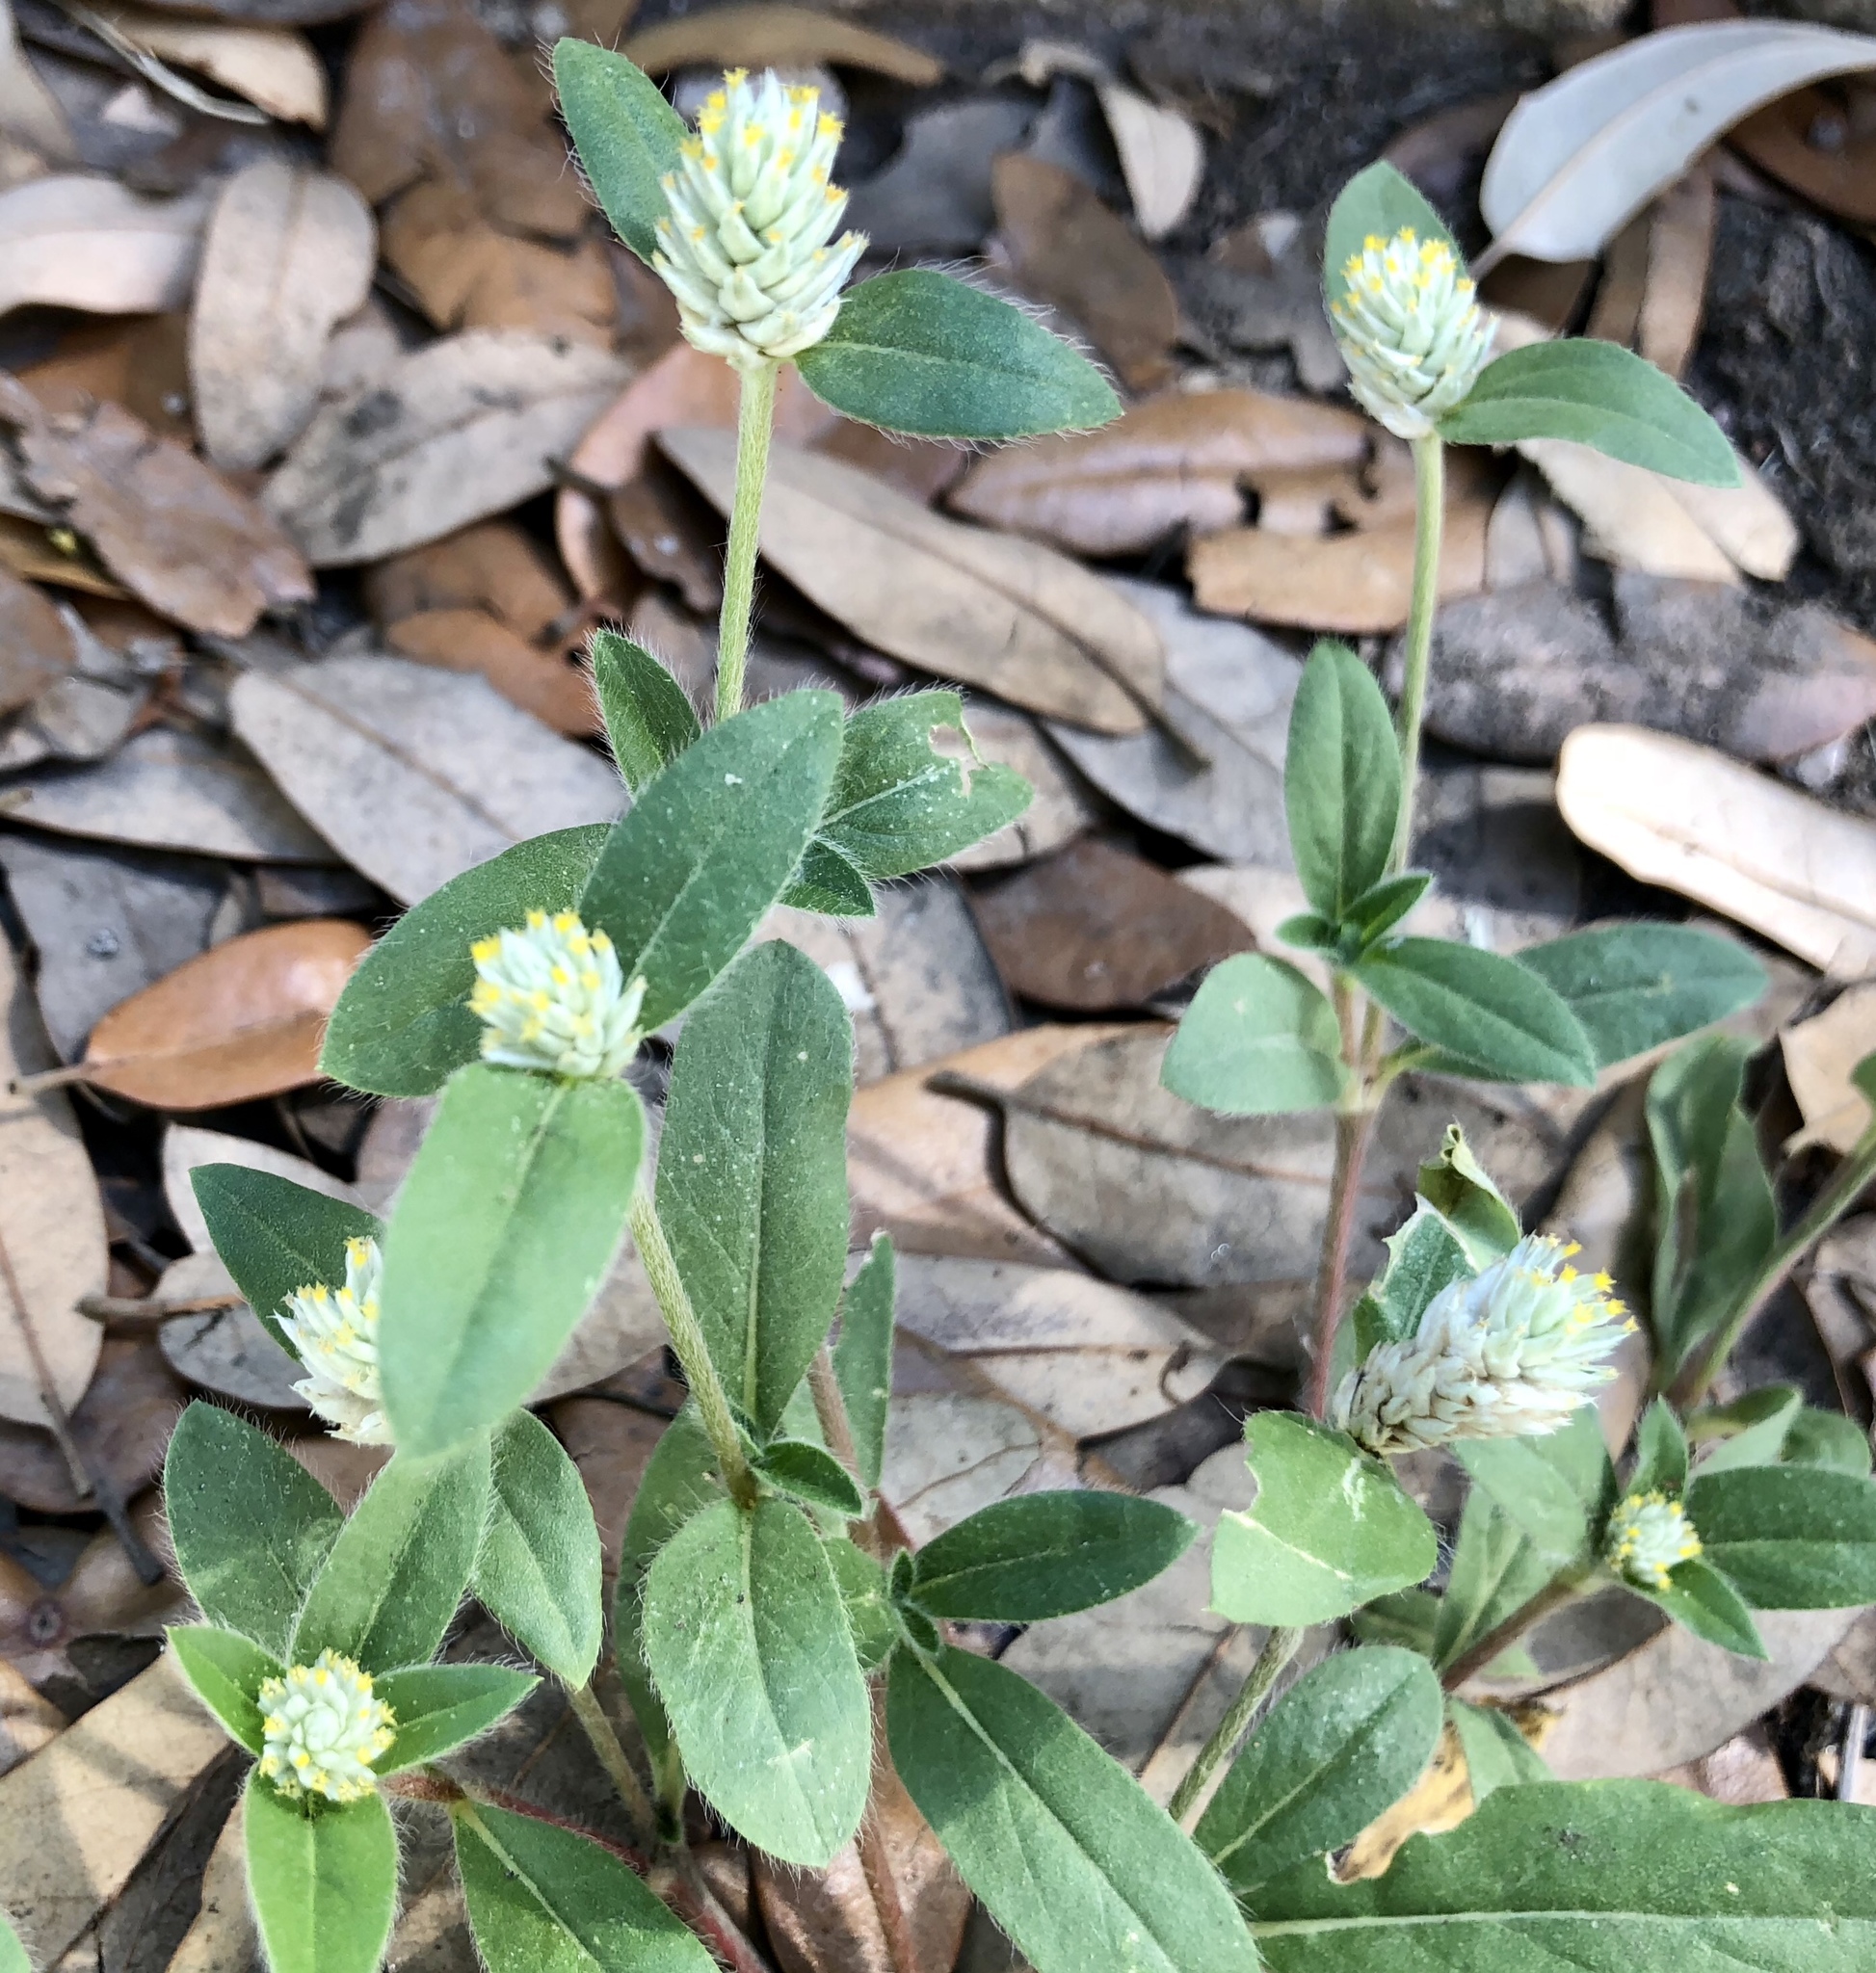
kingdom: Plantae
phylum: Tracheophyta
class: Magnoliopsida
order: Caryophyllales
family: Amaranthaceae
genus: Gomphrena
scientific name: Gomphrena serrata
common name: Arrasa con todo
